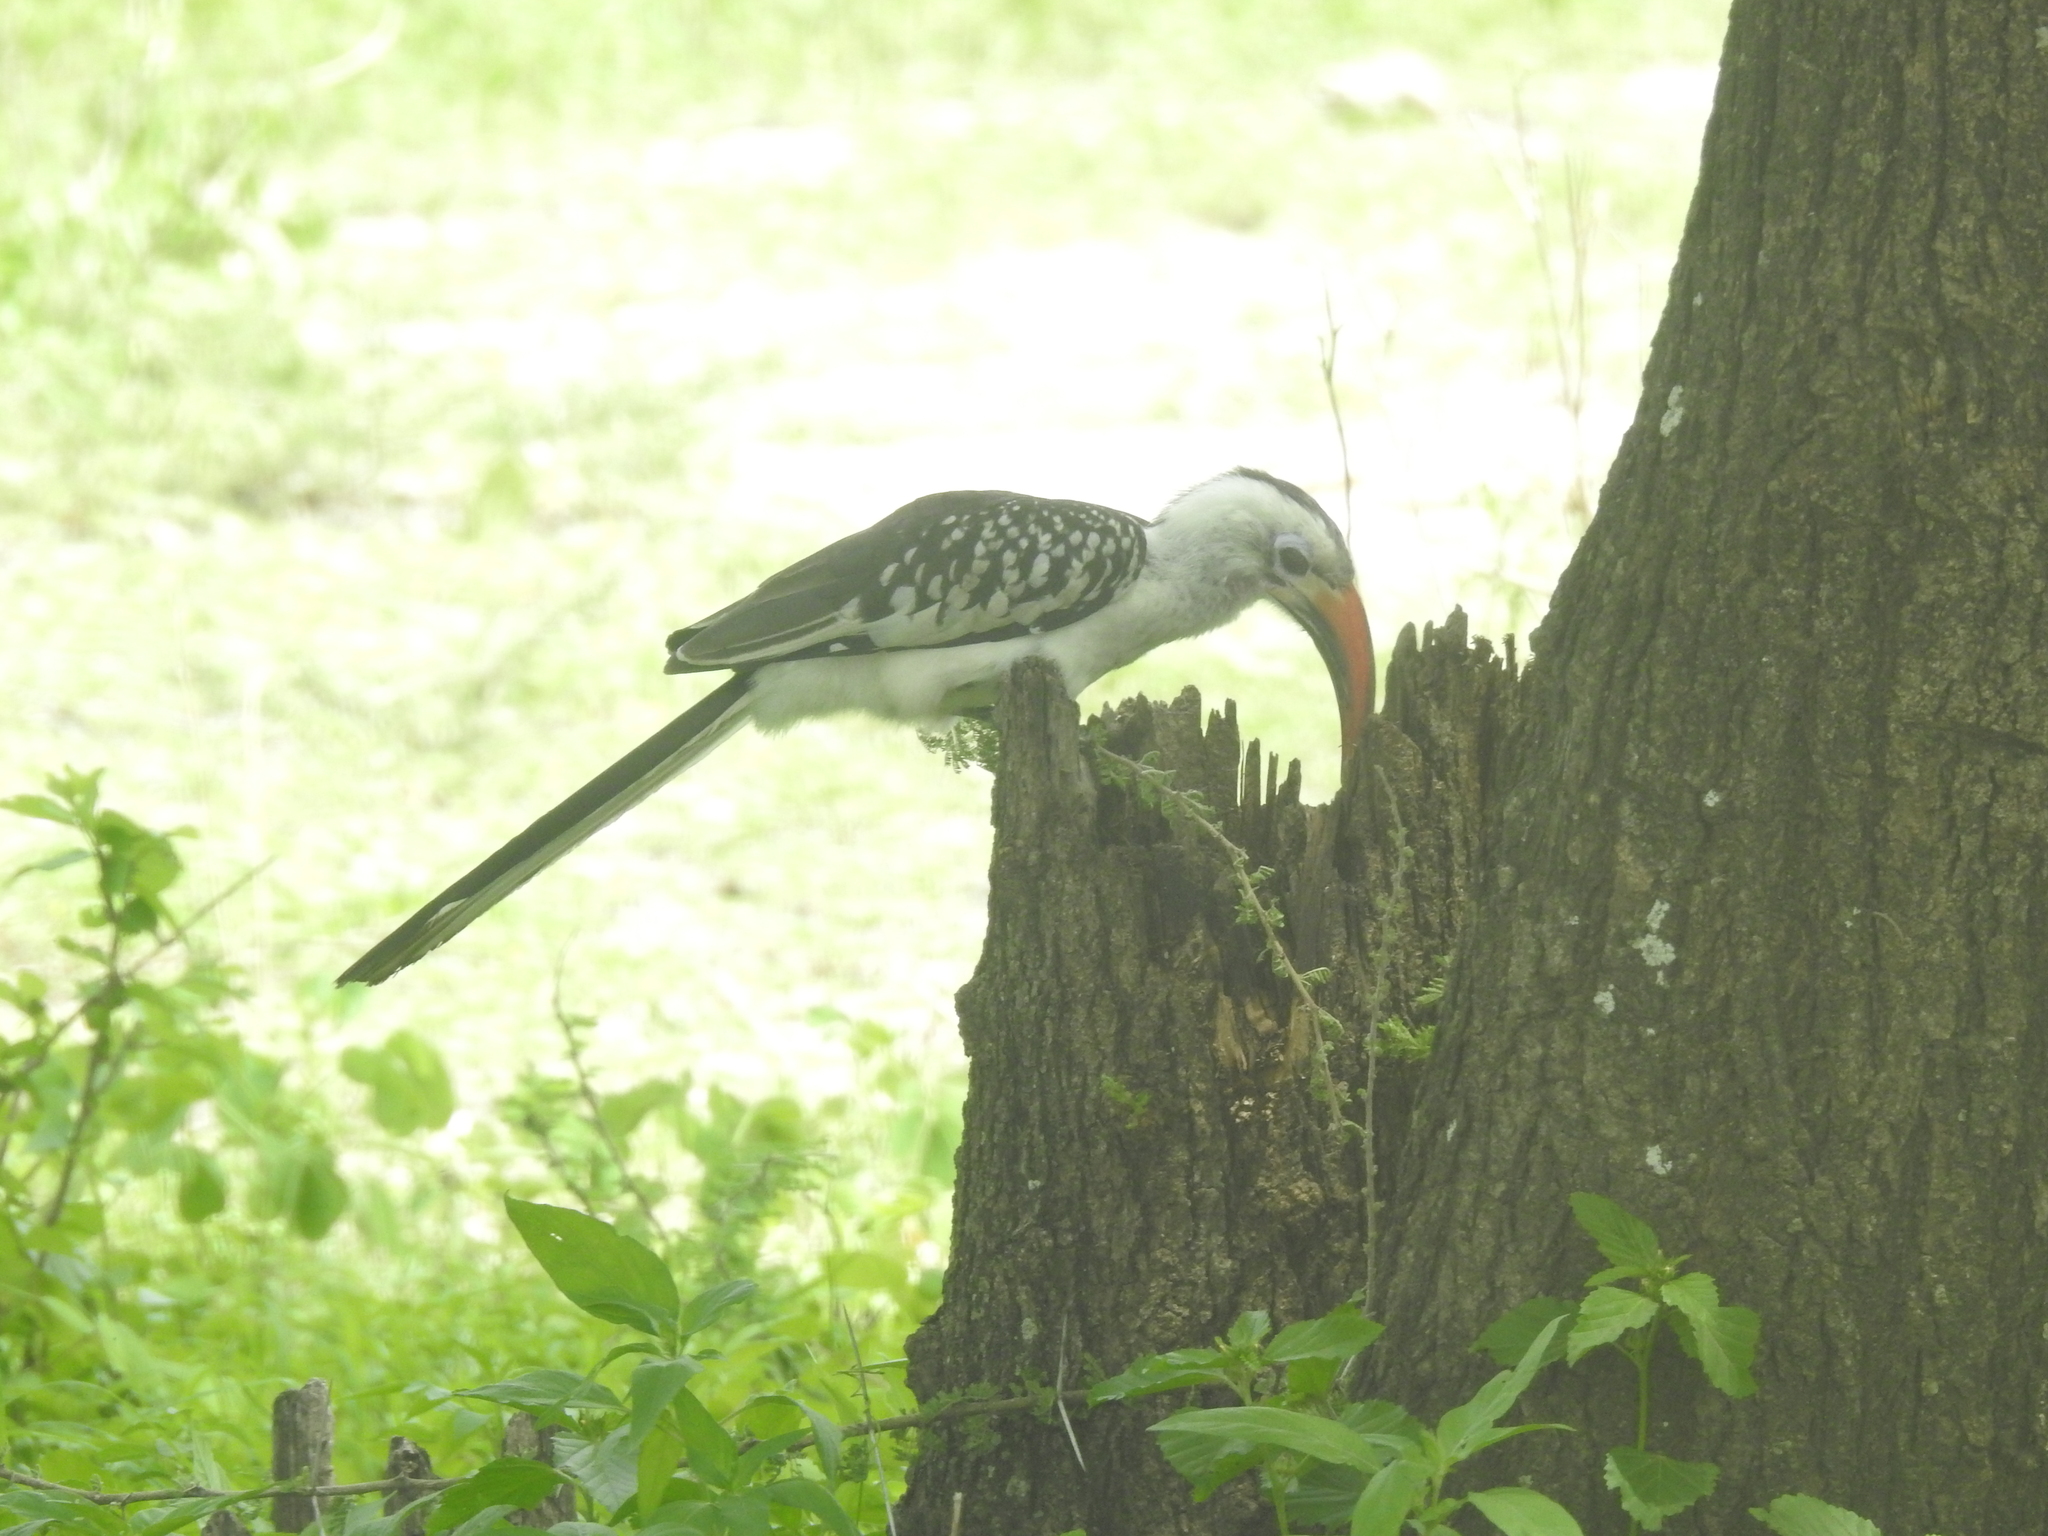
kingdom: Animalia
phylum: Chordata
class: Aves
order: Bucerotiformes
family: Bucerotidae
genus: Tockus
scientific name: Tockus erythrorhynchus
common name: Northern red-billed hornbill
